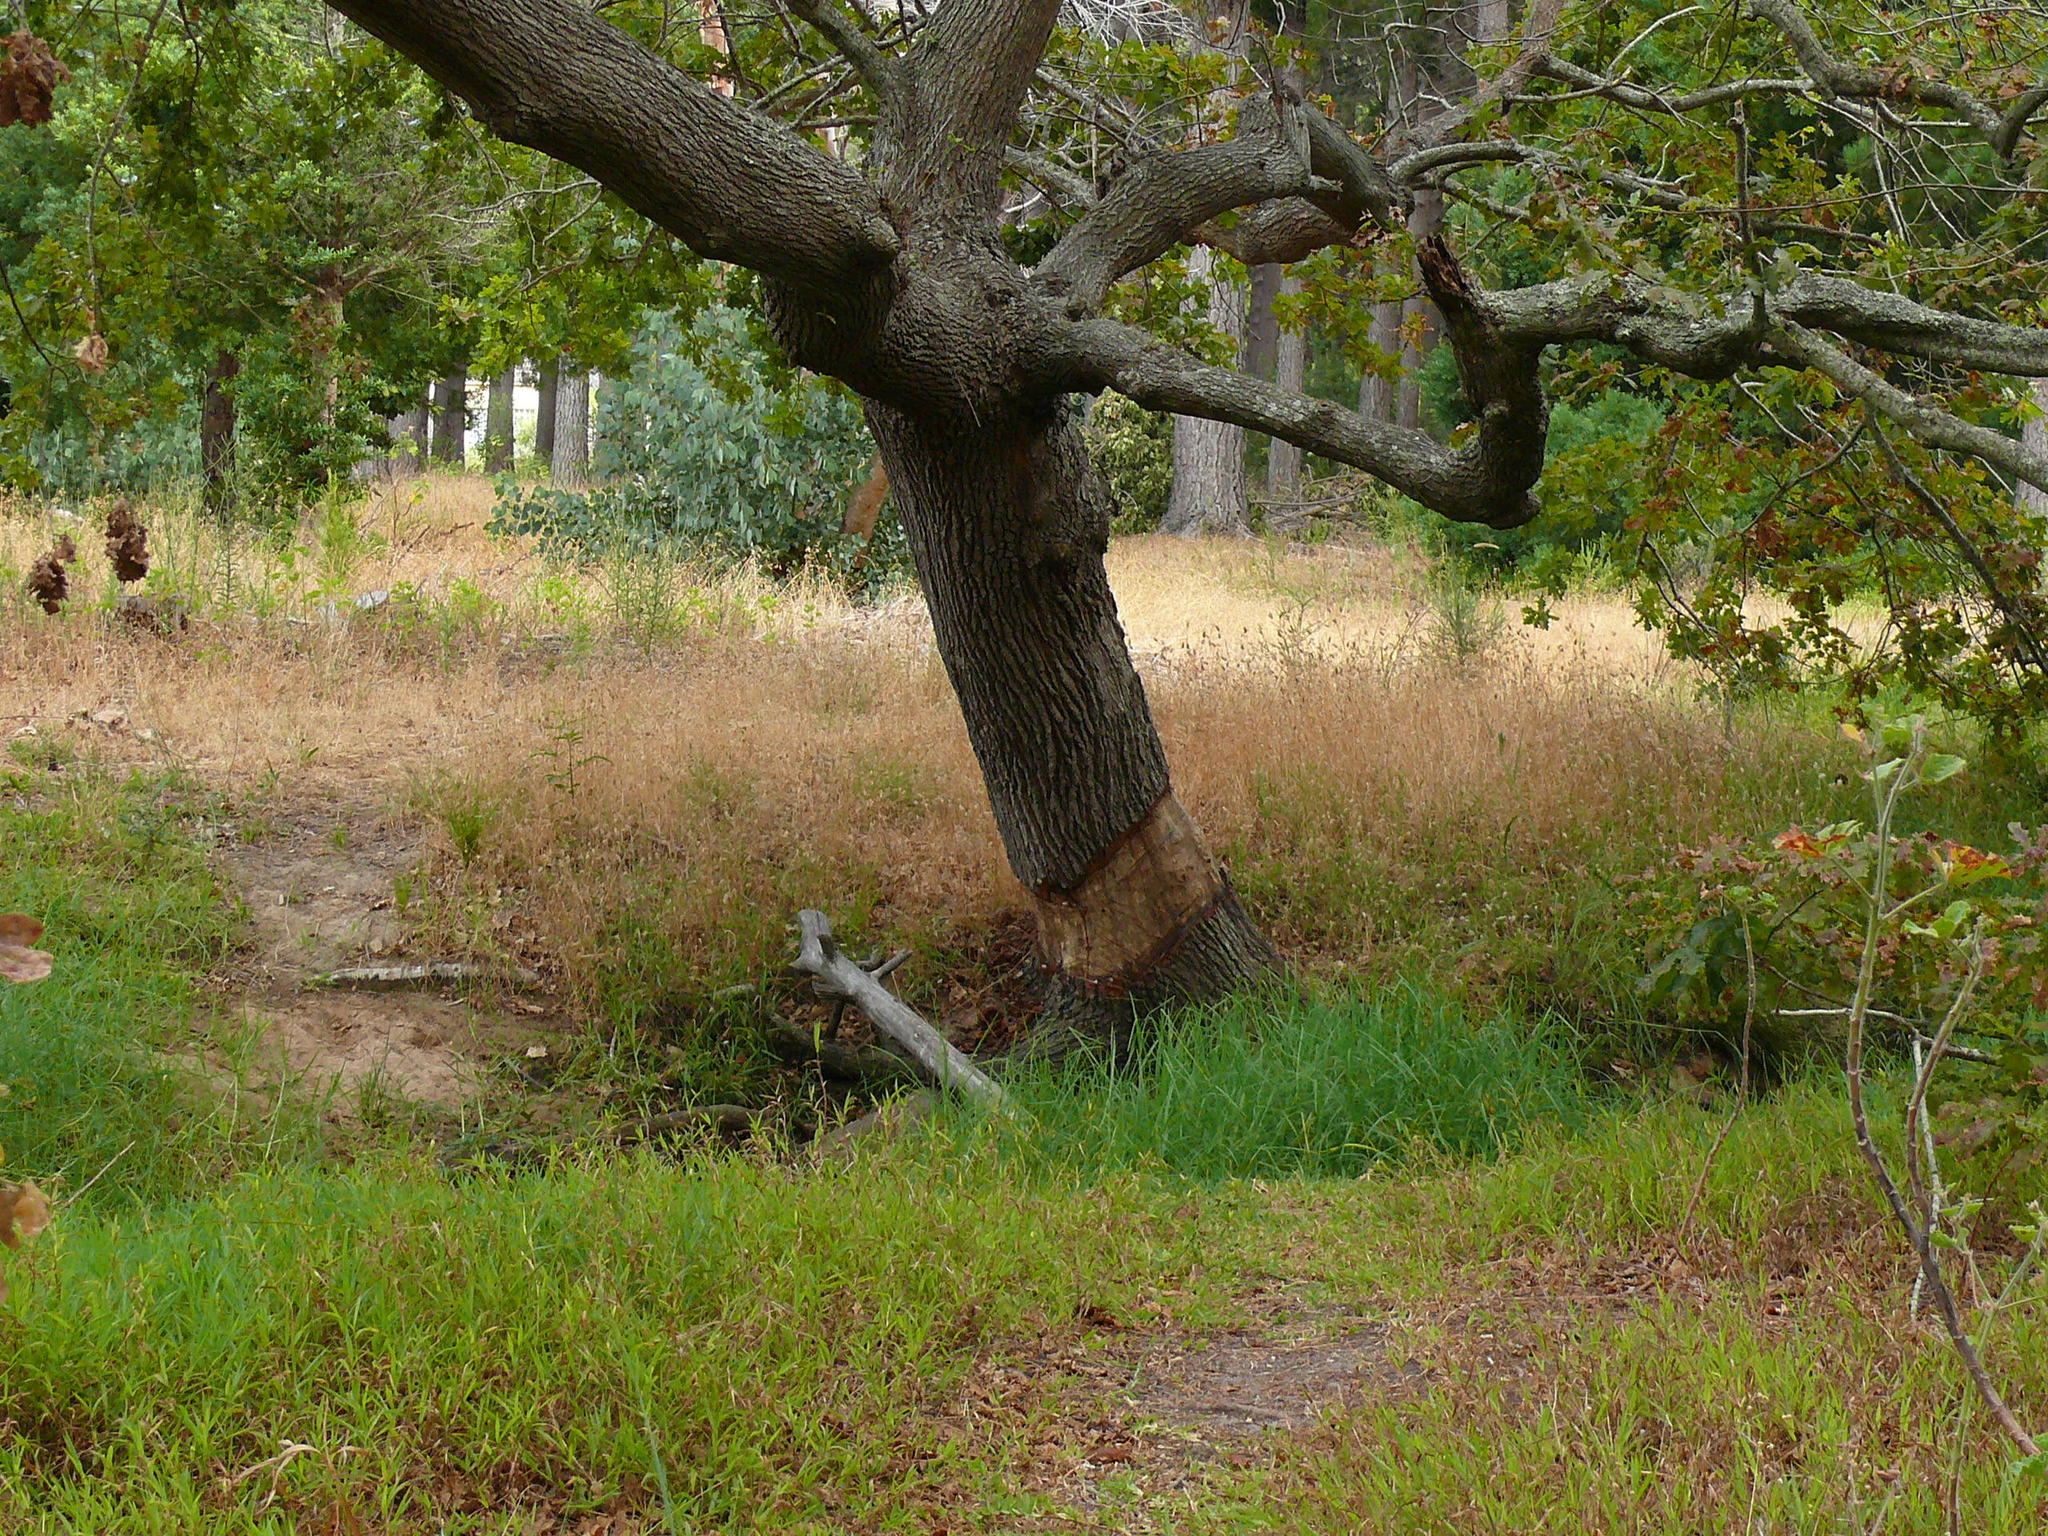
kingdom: Plantae
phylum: Tracheophyta
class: Magnoliopsida
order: Fagales
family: Fagaceae
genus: Quercus
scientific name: Quercus robur
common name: Pedunculate oak
